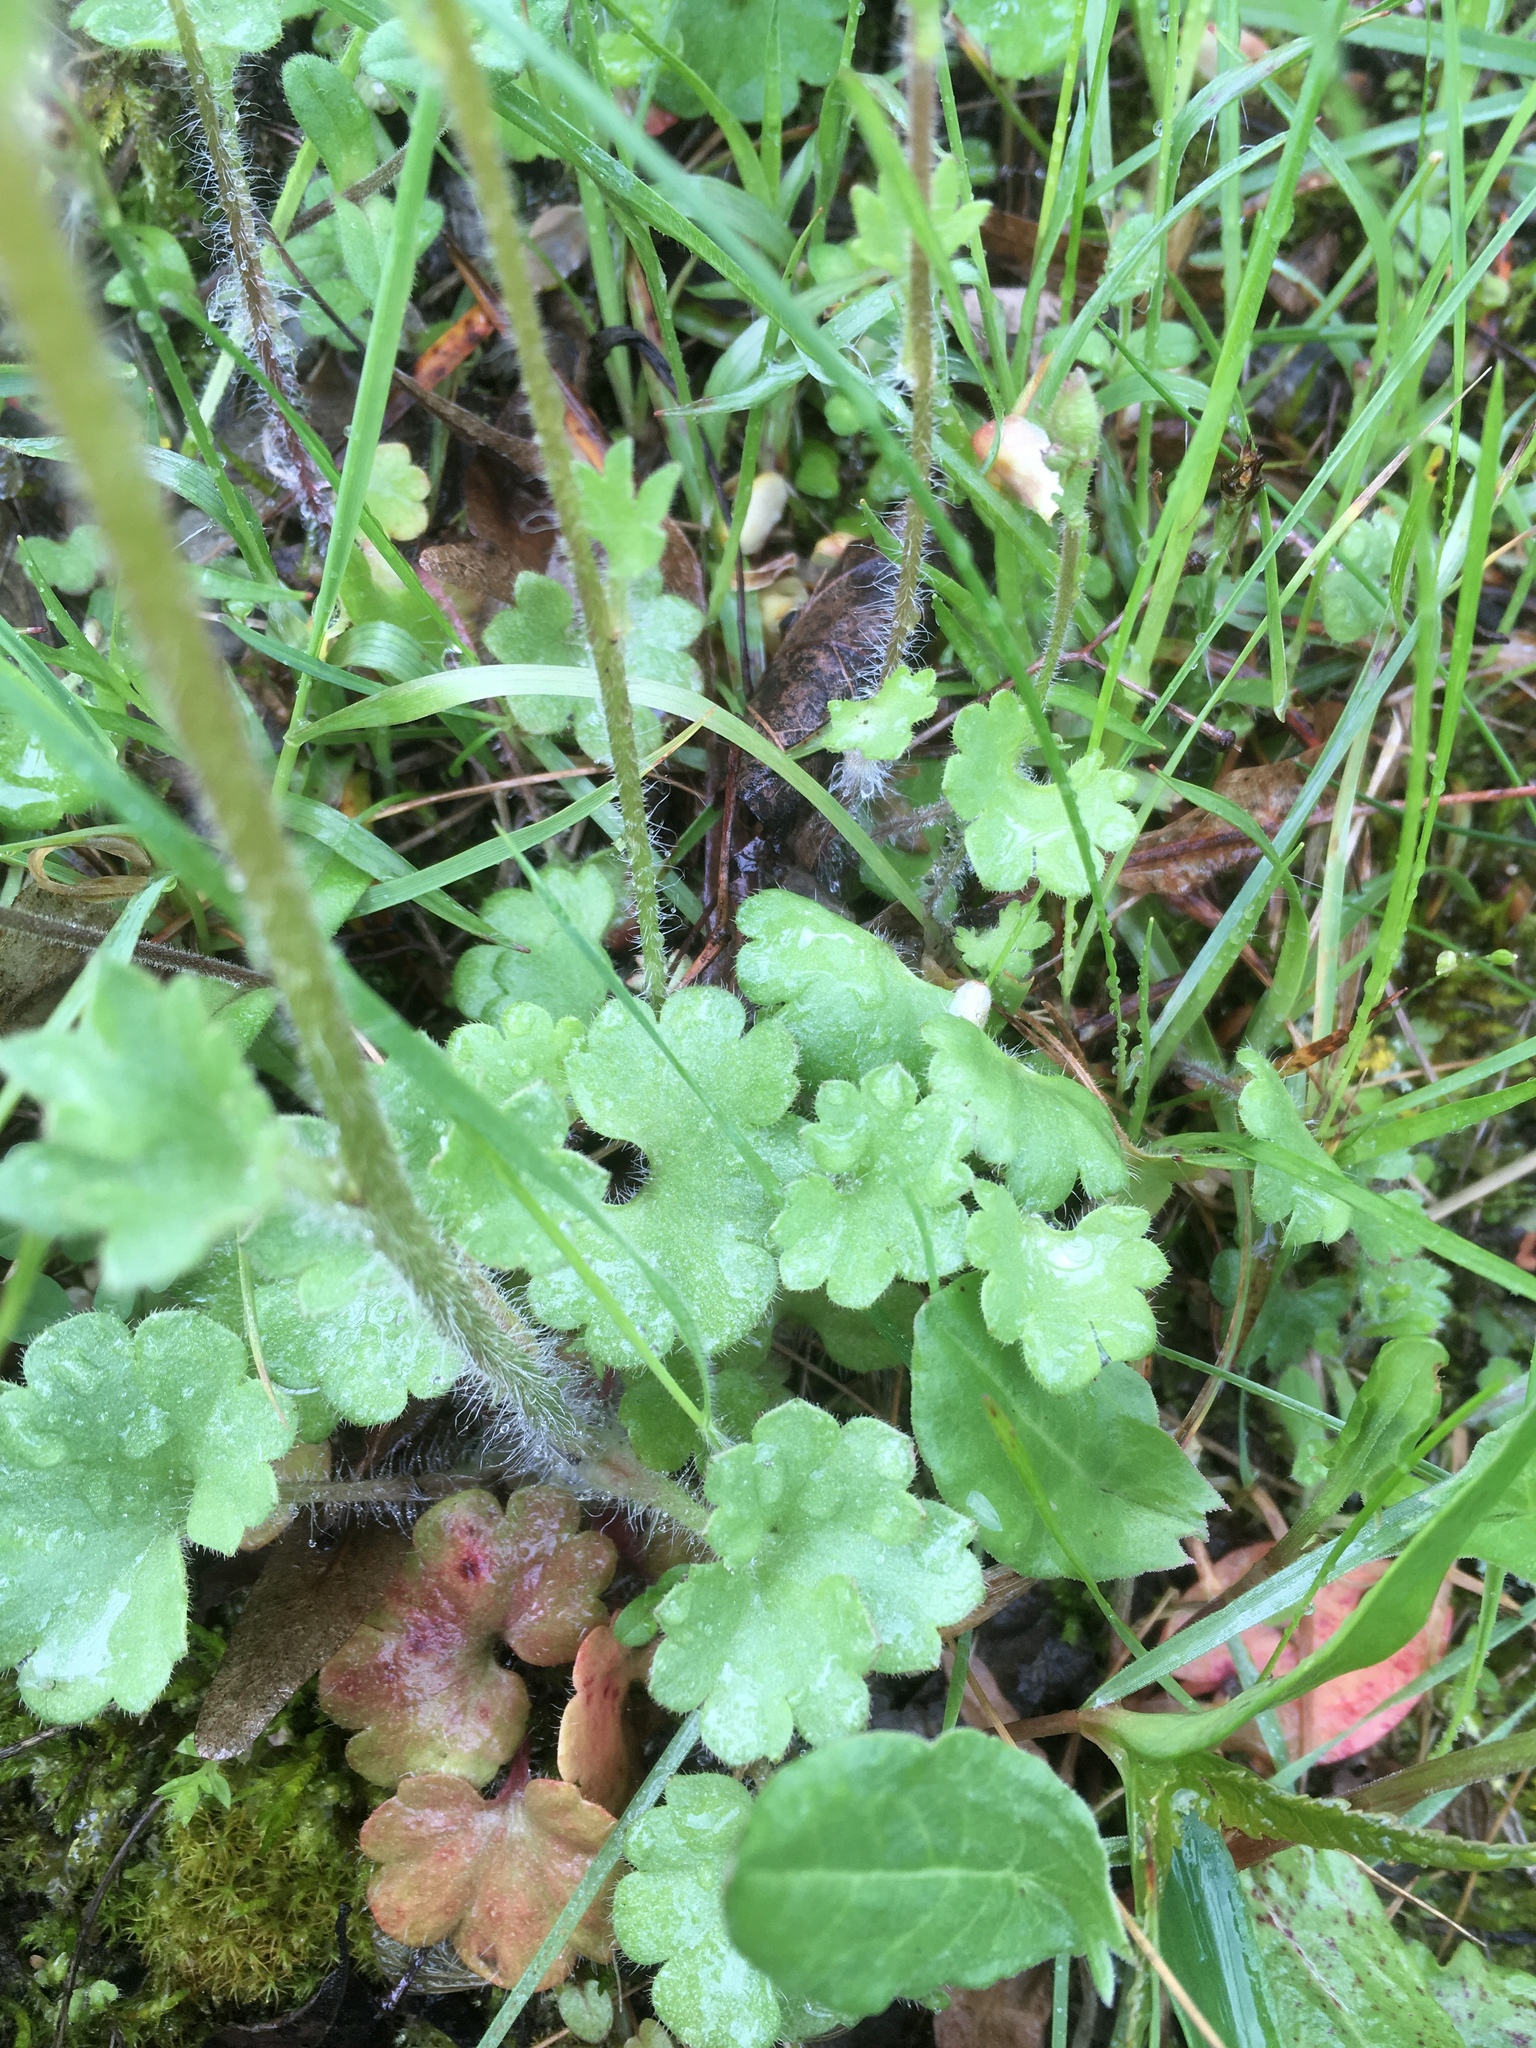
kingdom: Plantae
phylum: Tracheophyta
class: Magnoliopsida
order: Saxifragales
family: Saxifragaceae
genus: Saxifraga
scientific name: Saxifraga granulata
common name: Meadow saxifrage
